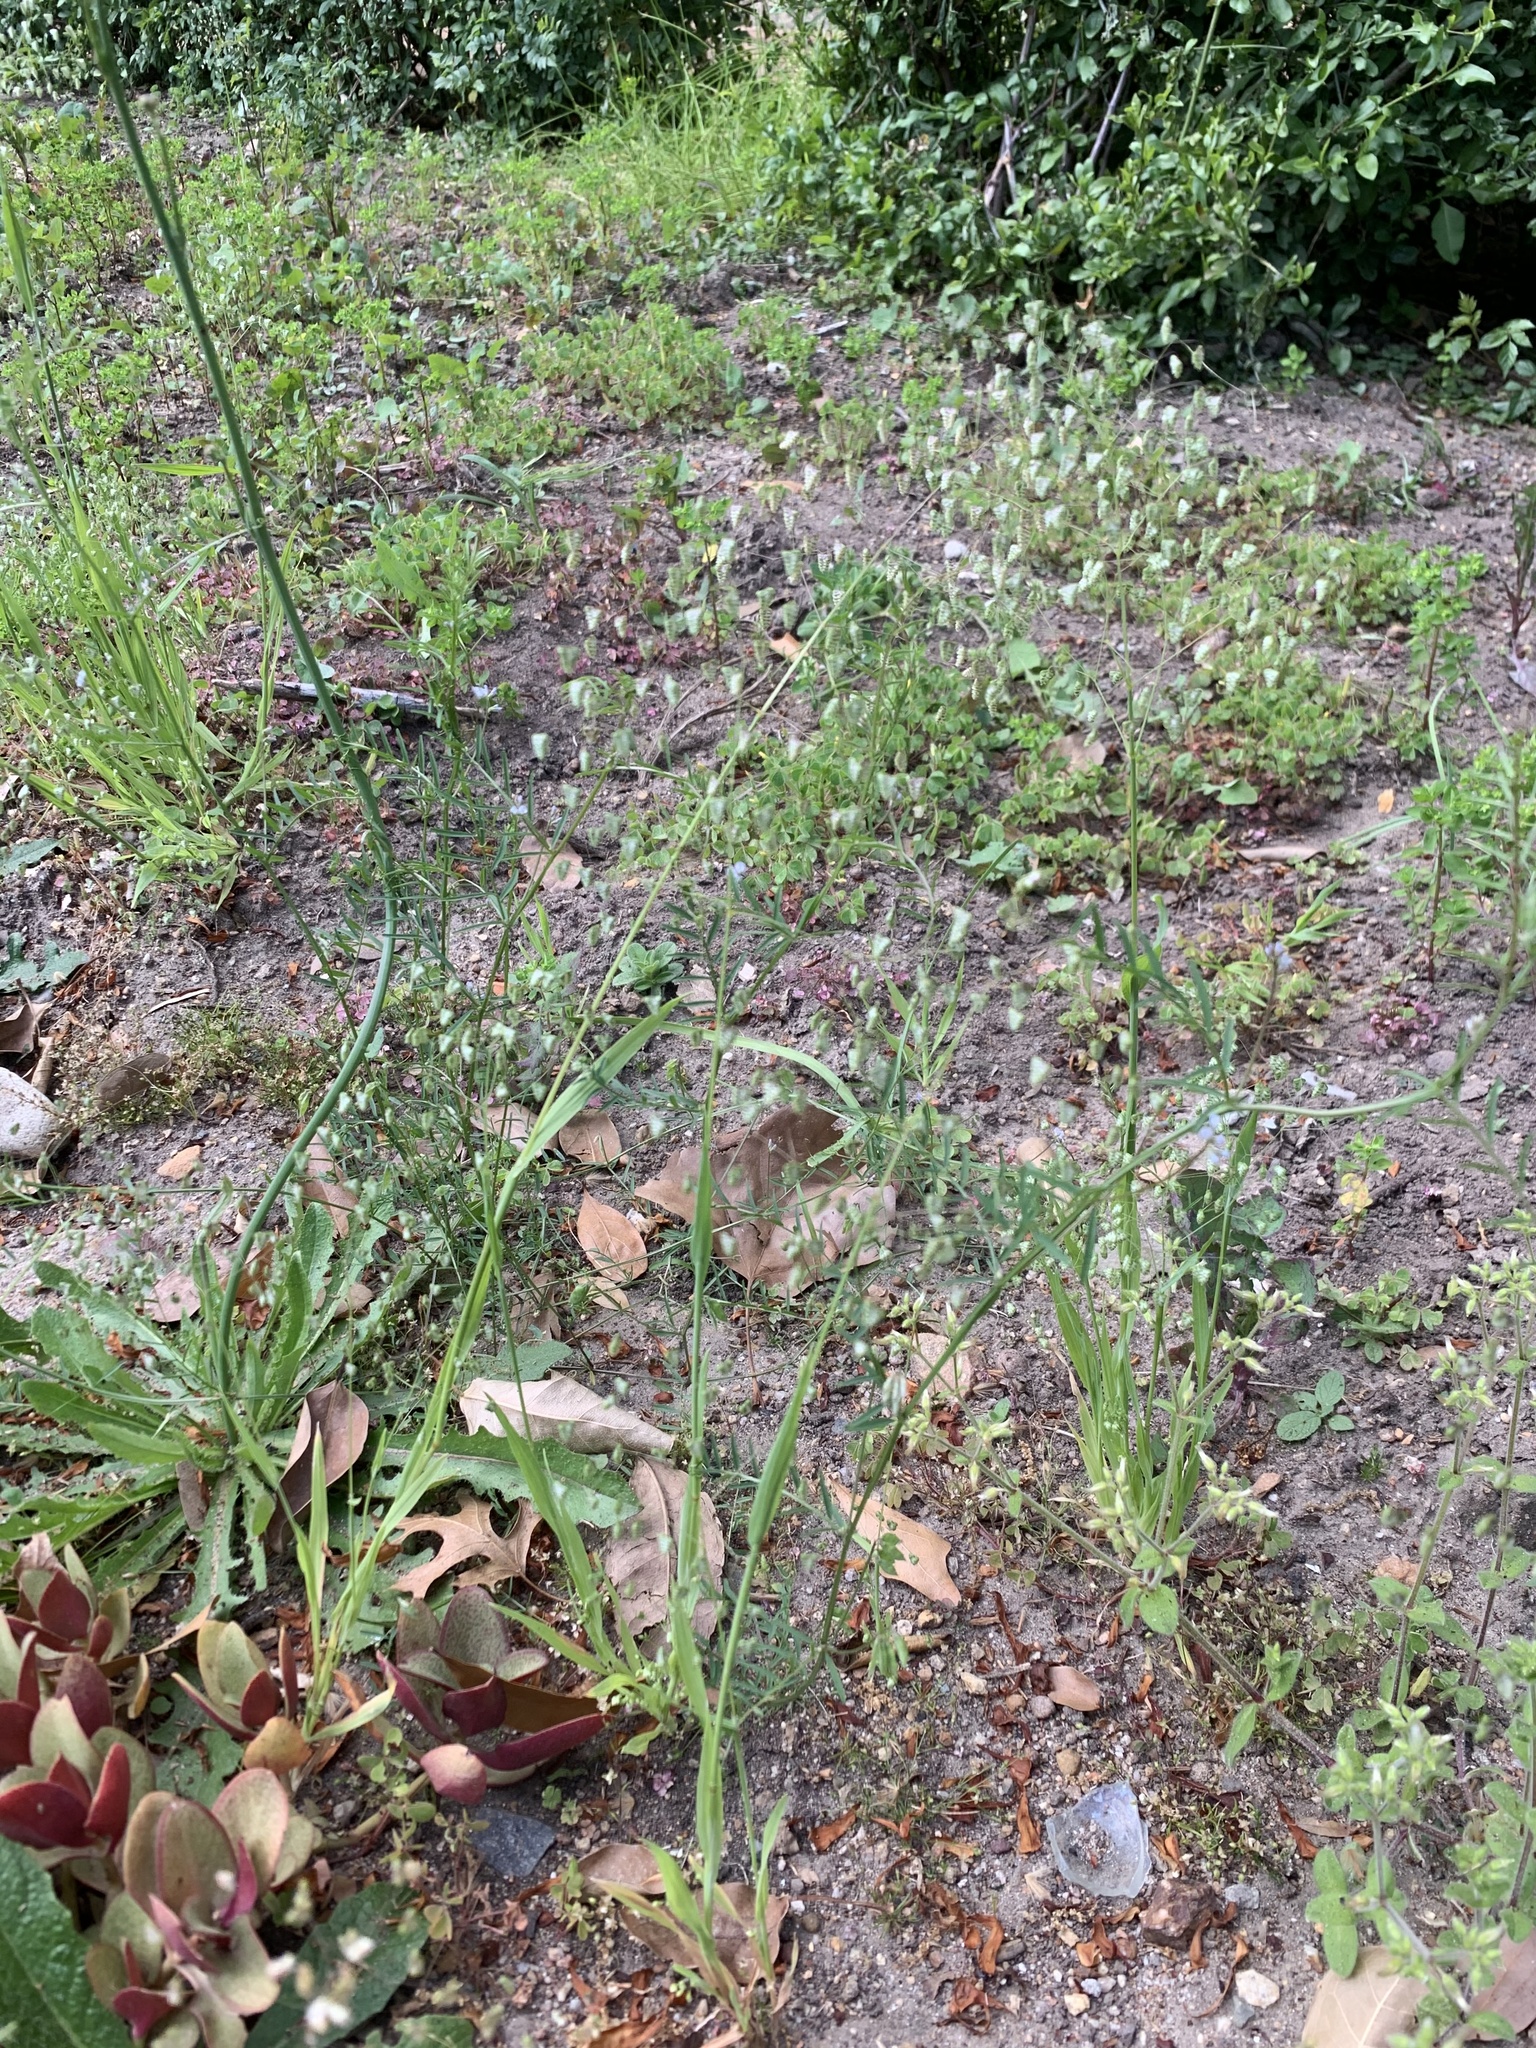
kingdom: Plantae
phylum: Tracheophyta
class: Liliopsida
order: Poales
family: Poaceae
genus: Briza
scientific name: Briza minor
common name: Lesser quaking-grass
